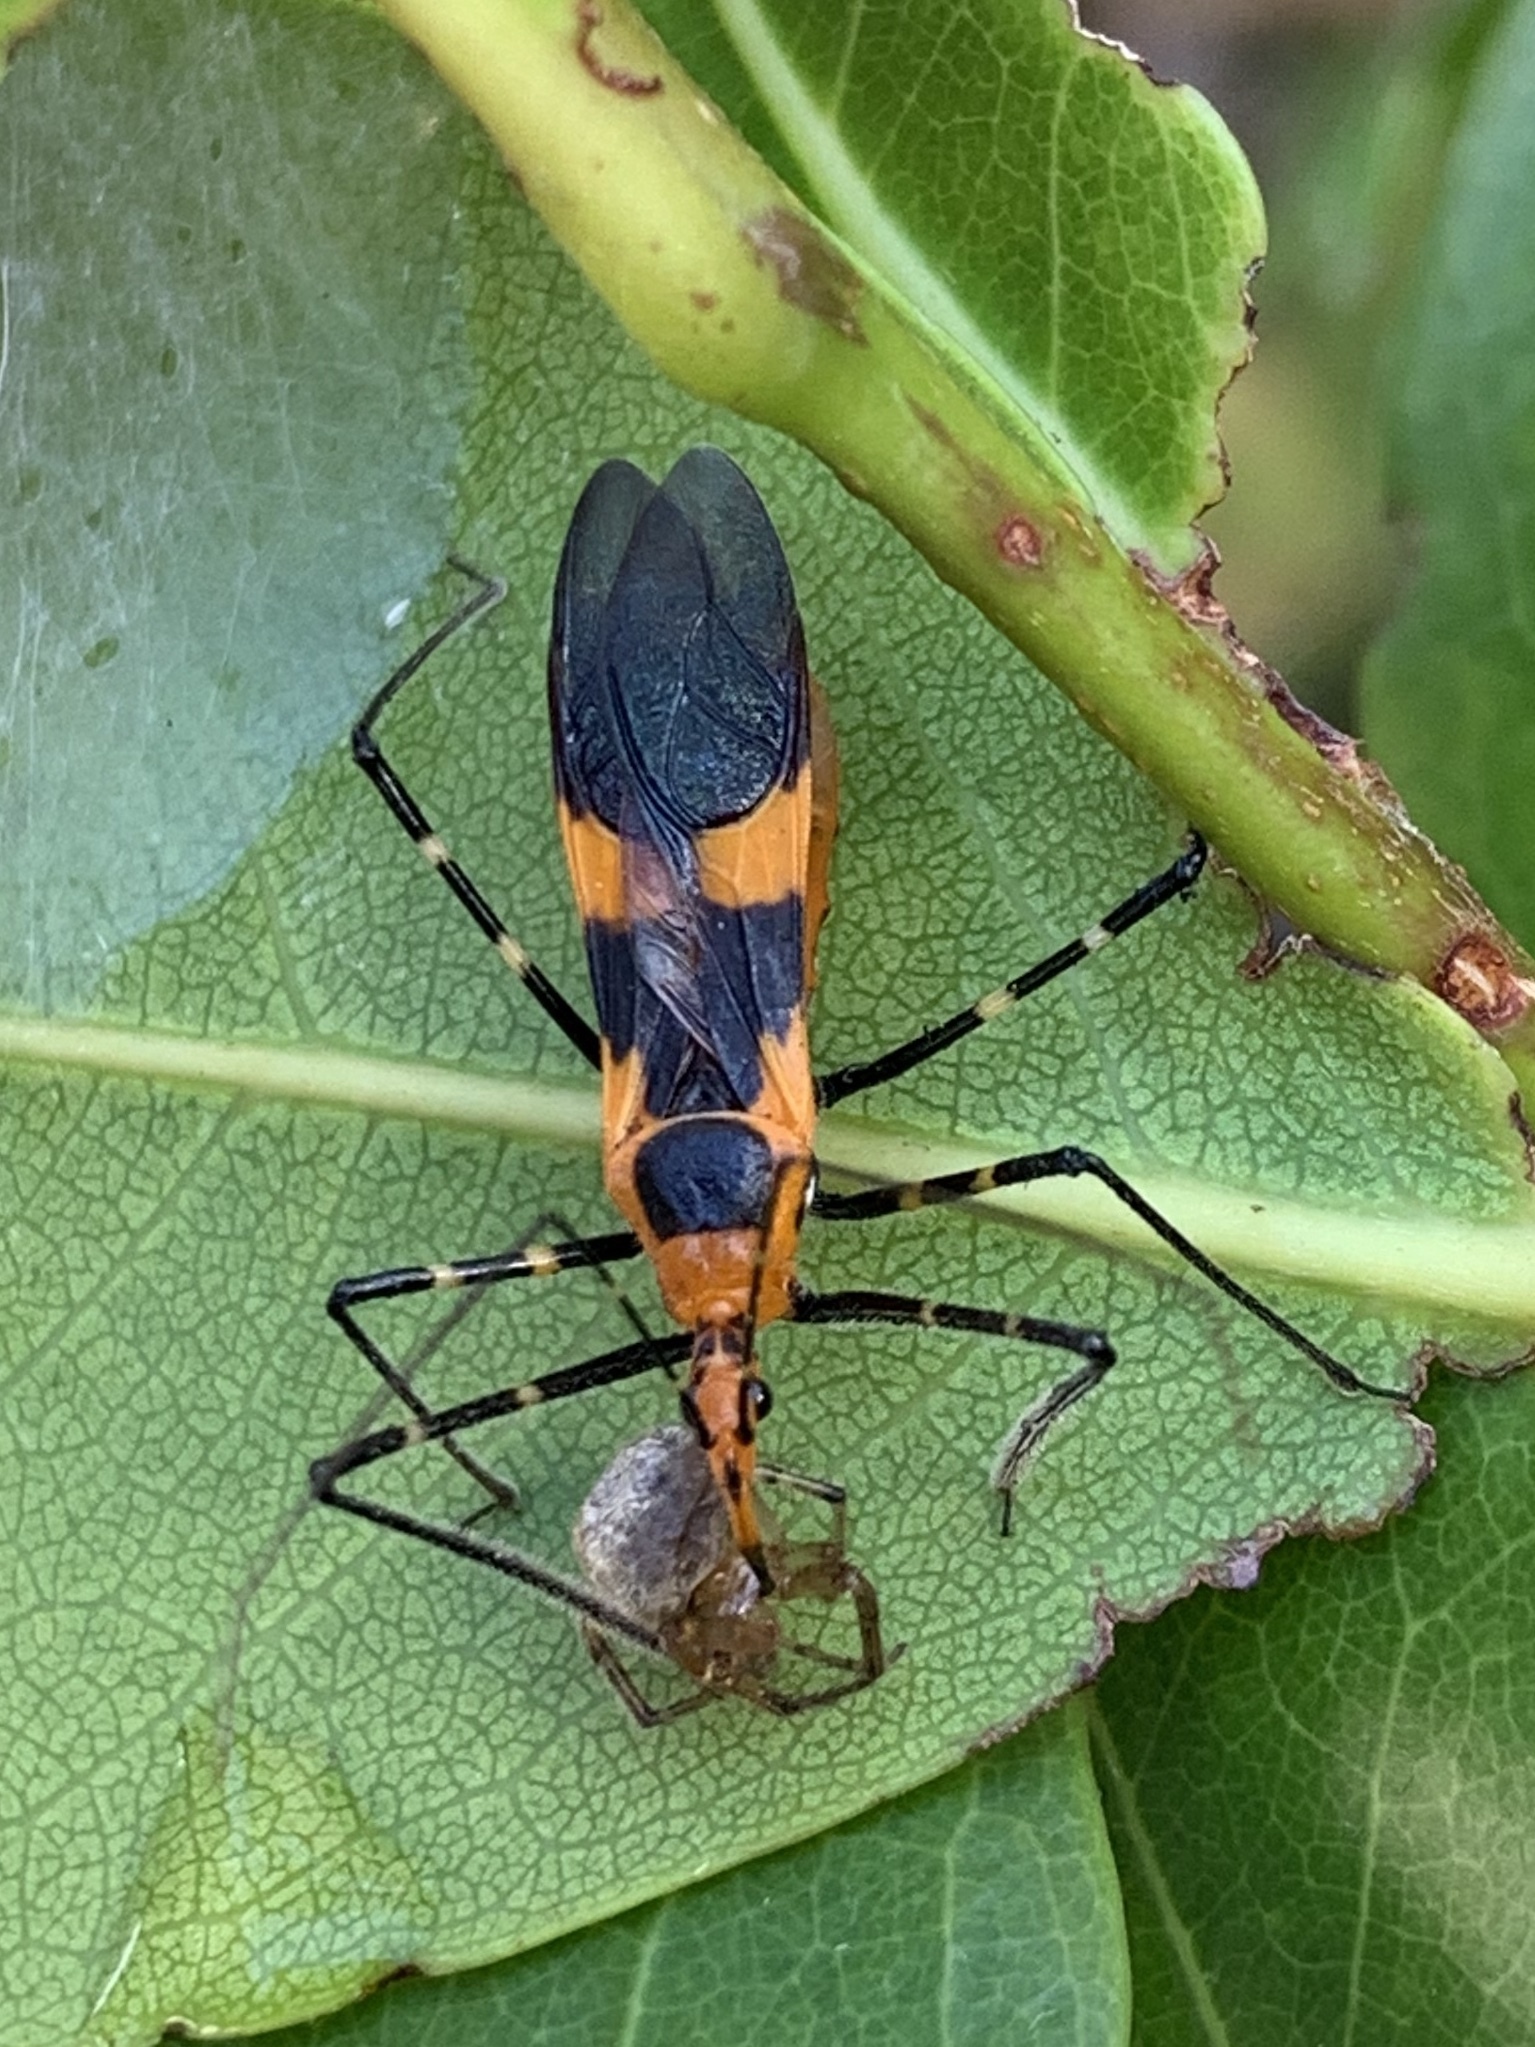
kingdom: Animalia
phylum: Arthropoda
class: Insecta
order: Hemiptera
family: Reduviidae
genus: Zelus
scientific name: Zelus longipes
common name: Milkweed assassin bug
